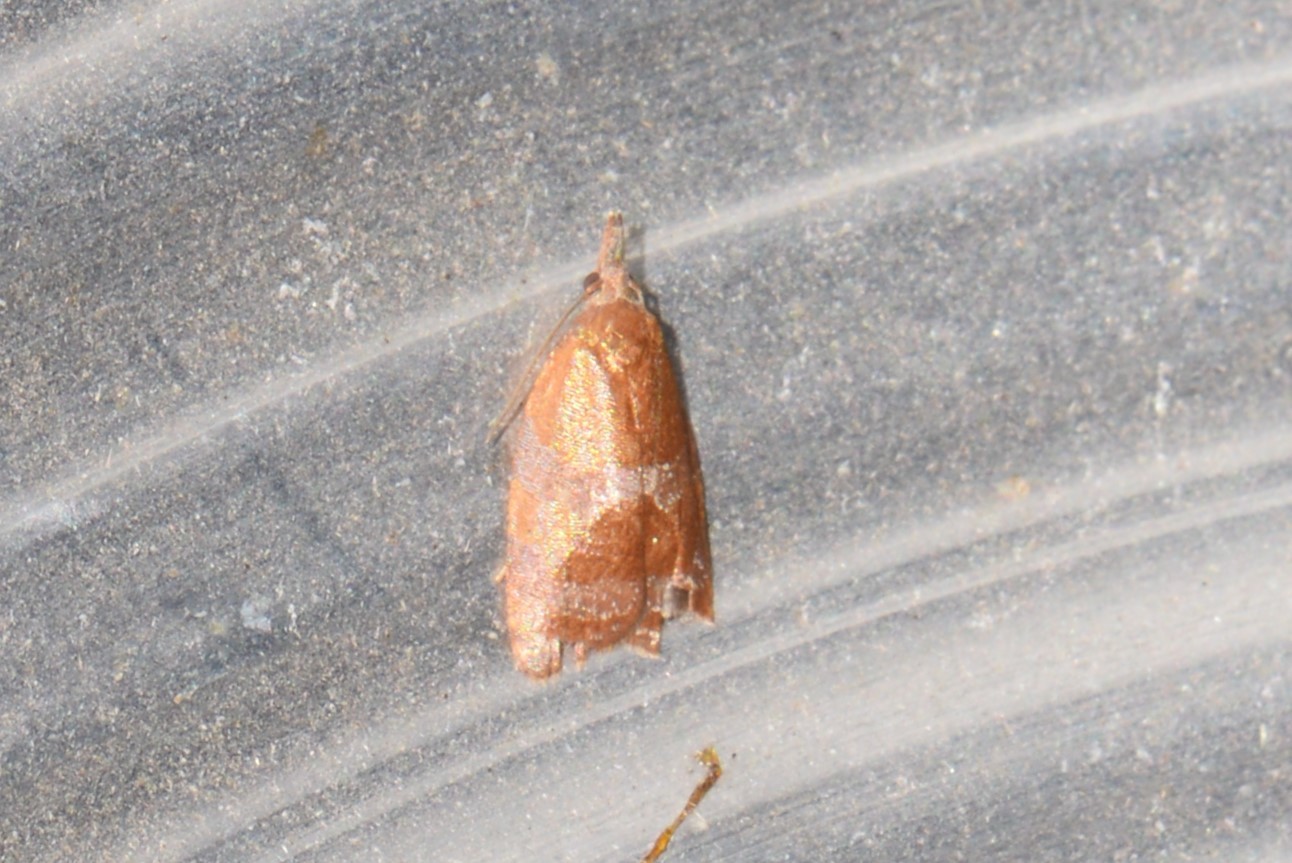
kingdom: Animalia
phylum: Arthropoda
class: Insecta
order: Lepidoptera
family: Tortricidae
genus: Cenopis
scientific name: Cenopis diluticostana
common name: Spring dead-leaf roller moth
